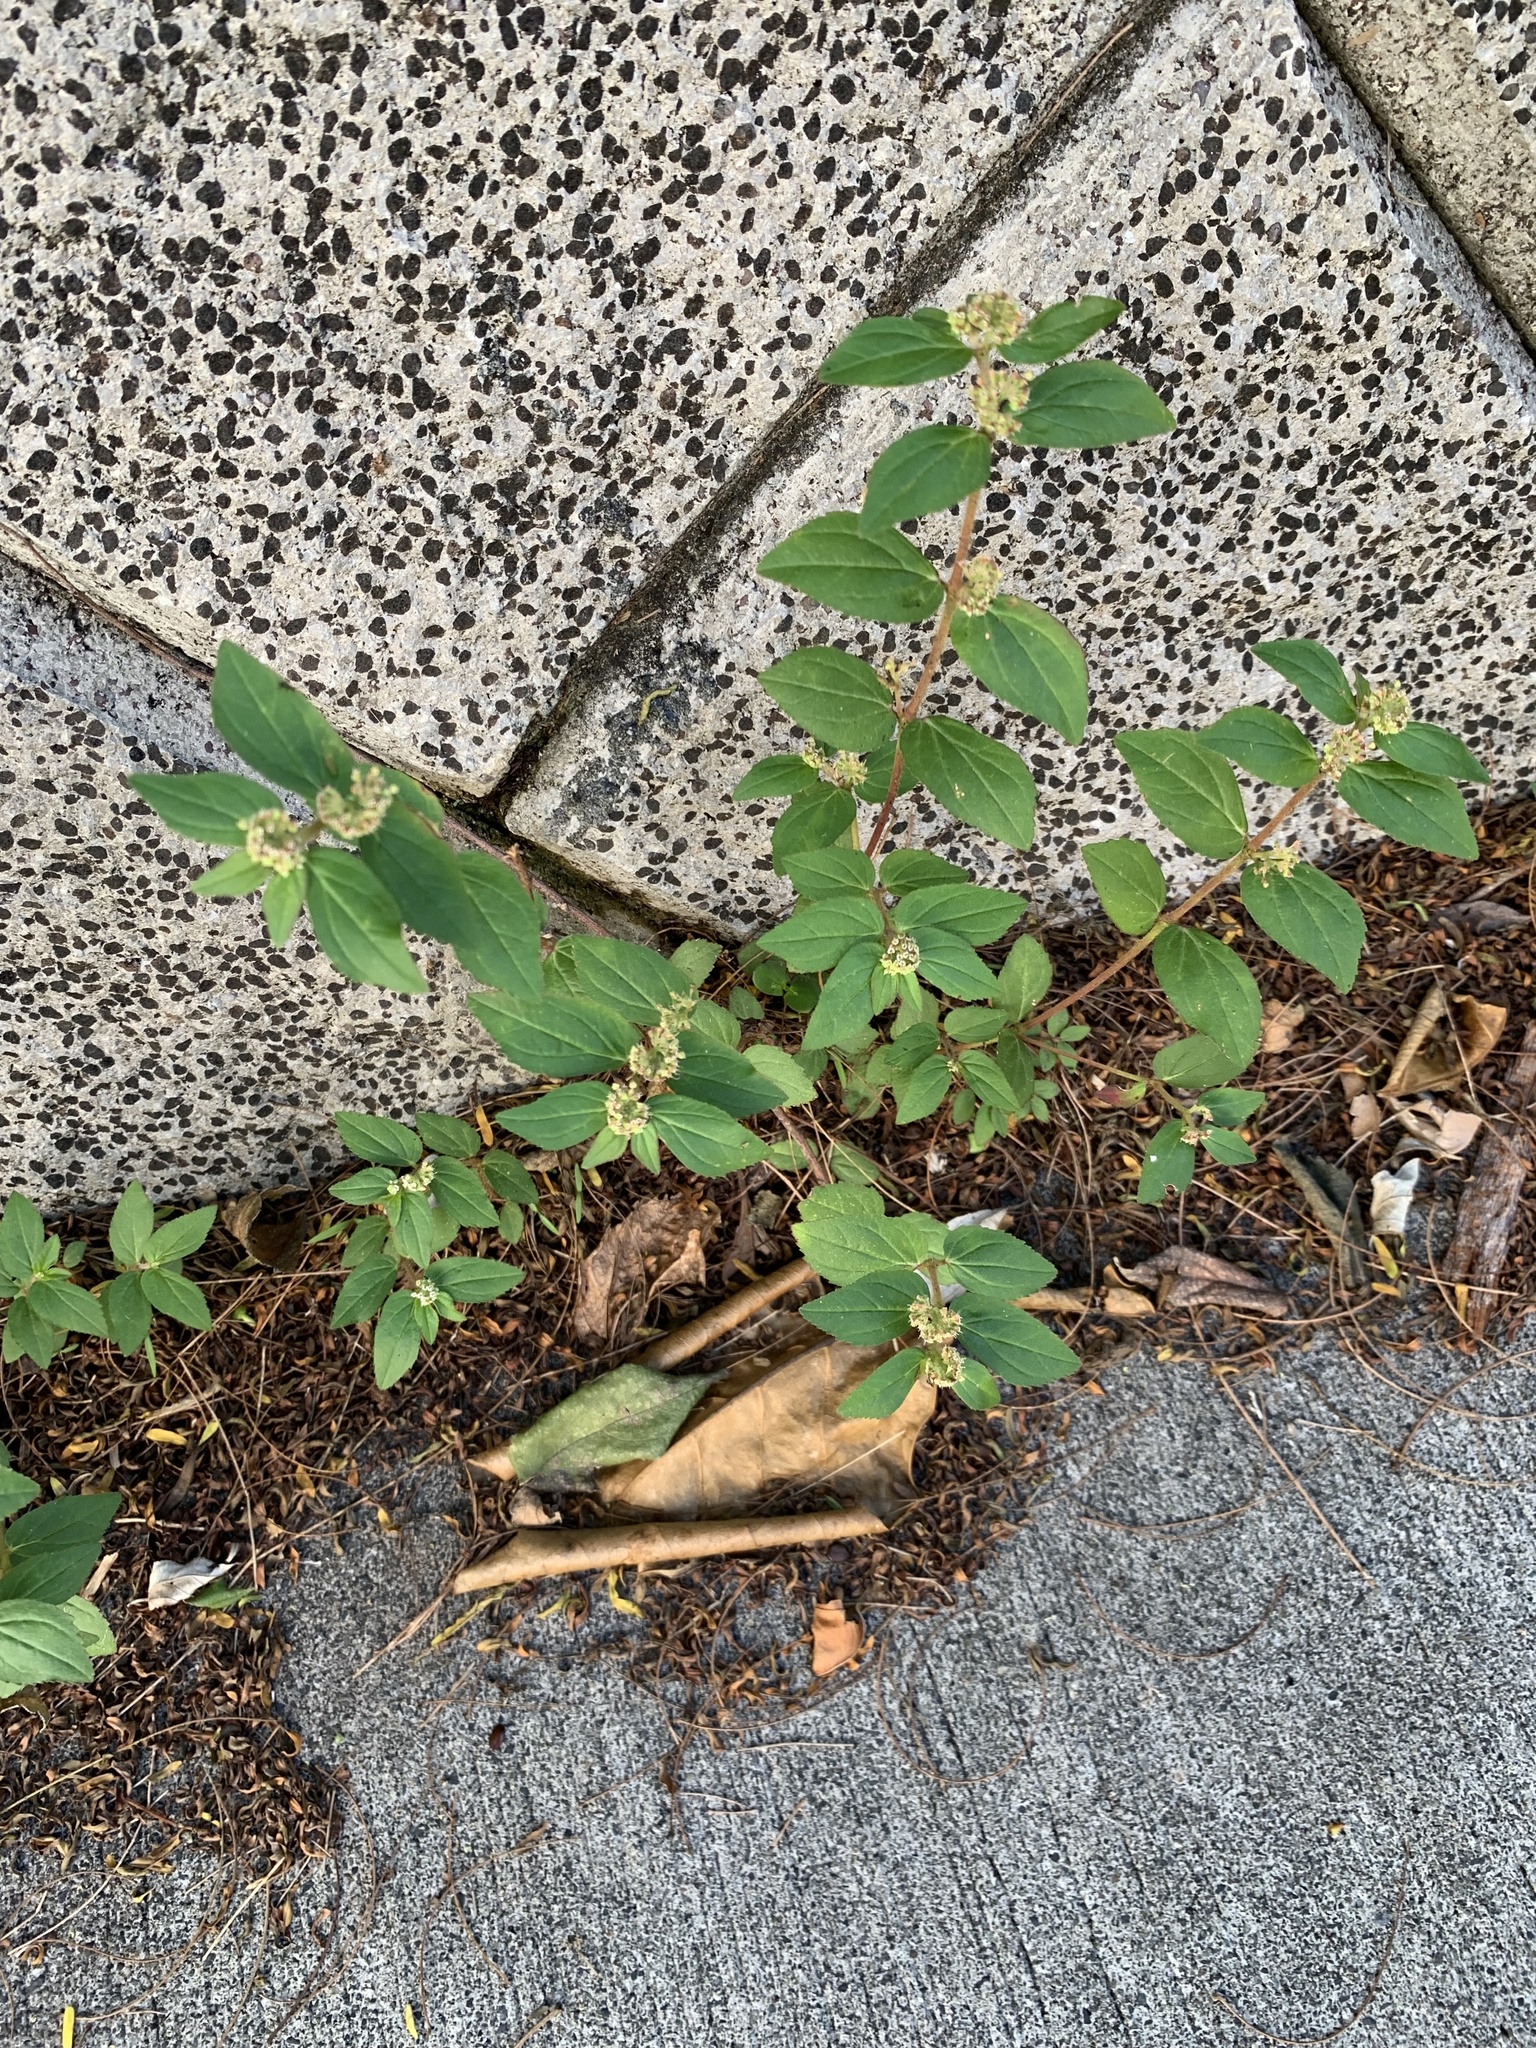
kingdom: Plantae
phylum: Tracheophyta
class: Magnoliopsida
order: Malpighiales
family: Euphorbiaceae
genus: Euphorbia
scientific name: Euphorbia hirta
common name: Pillpod sandmat
